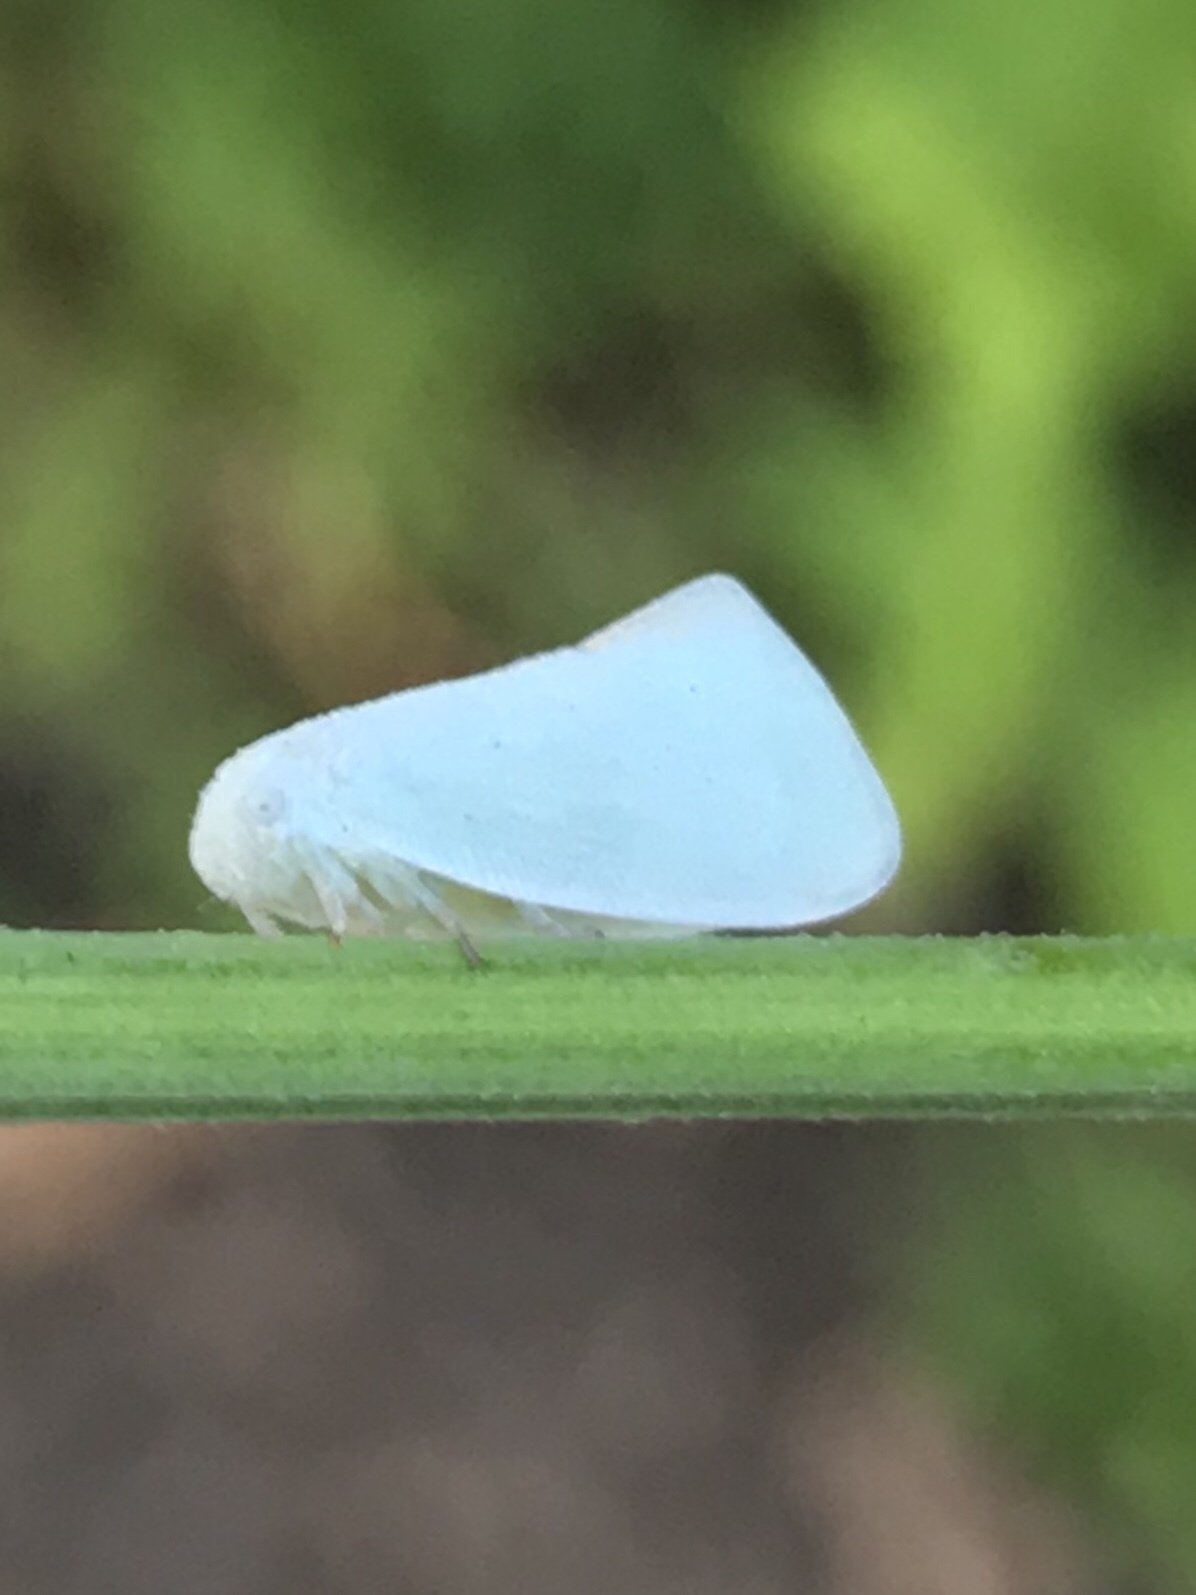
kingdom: Animalia
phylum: Arthropoda
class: Insecta
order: Hemiptera
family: Flatidae
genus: Flatormenis
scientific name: Flatormenis proxima
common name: Northern flatid planthopper
